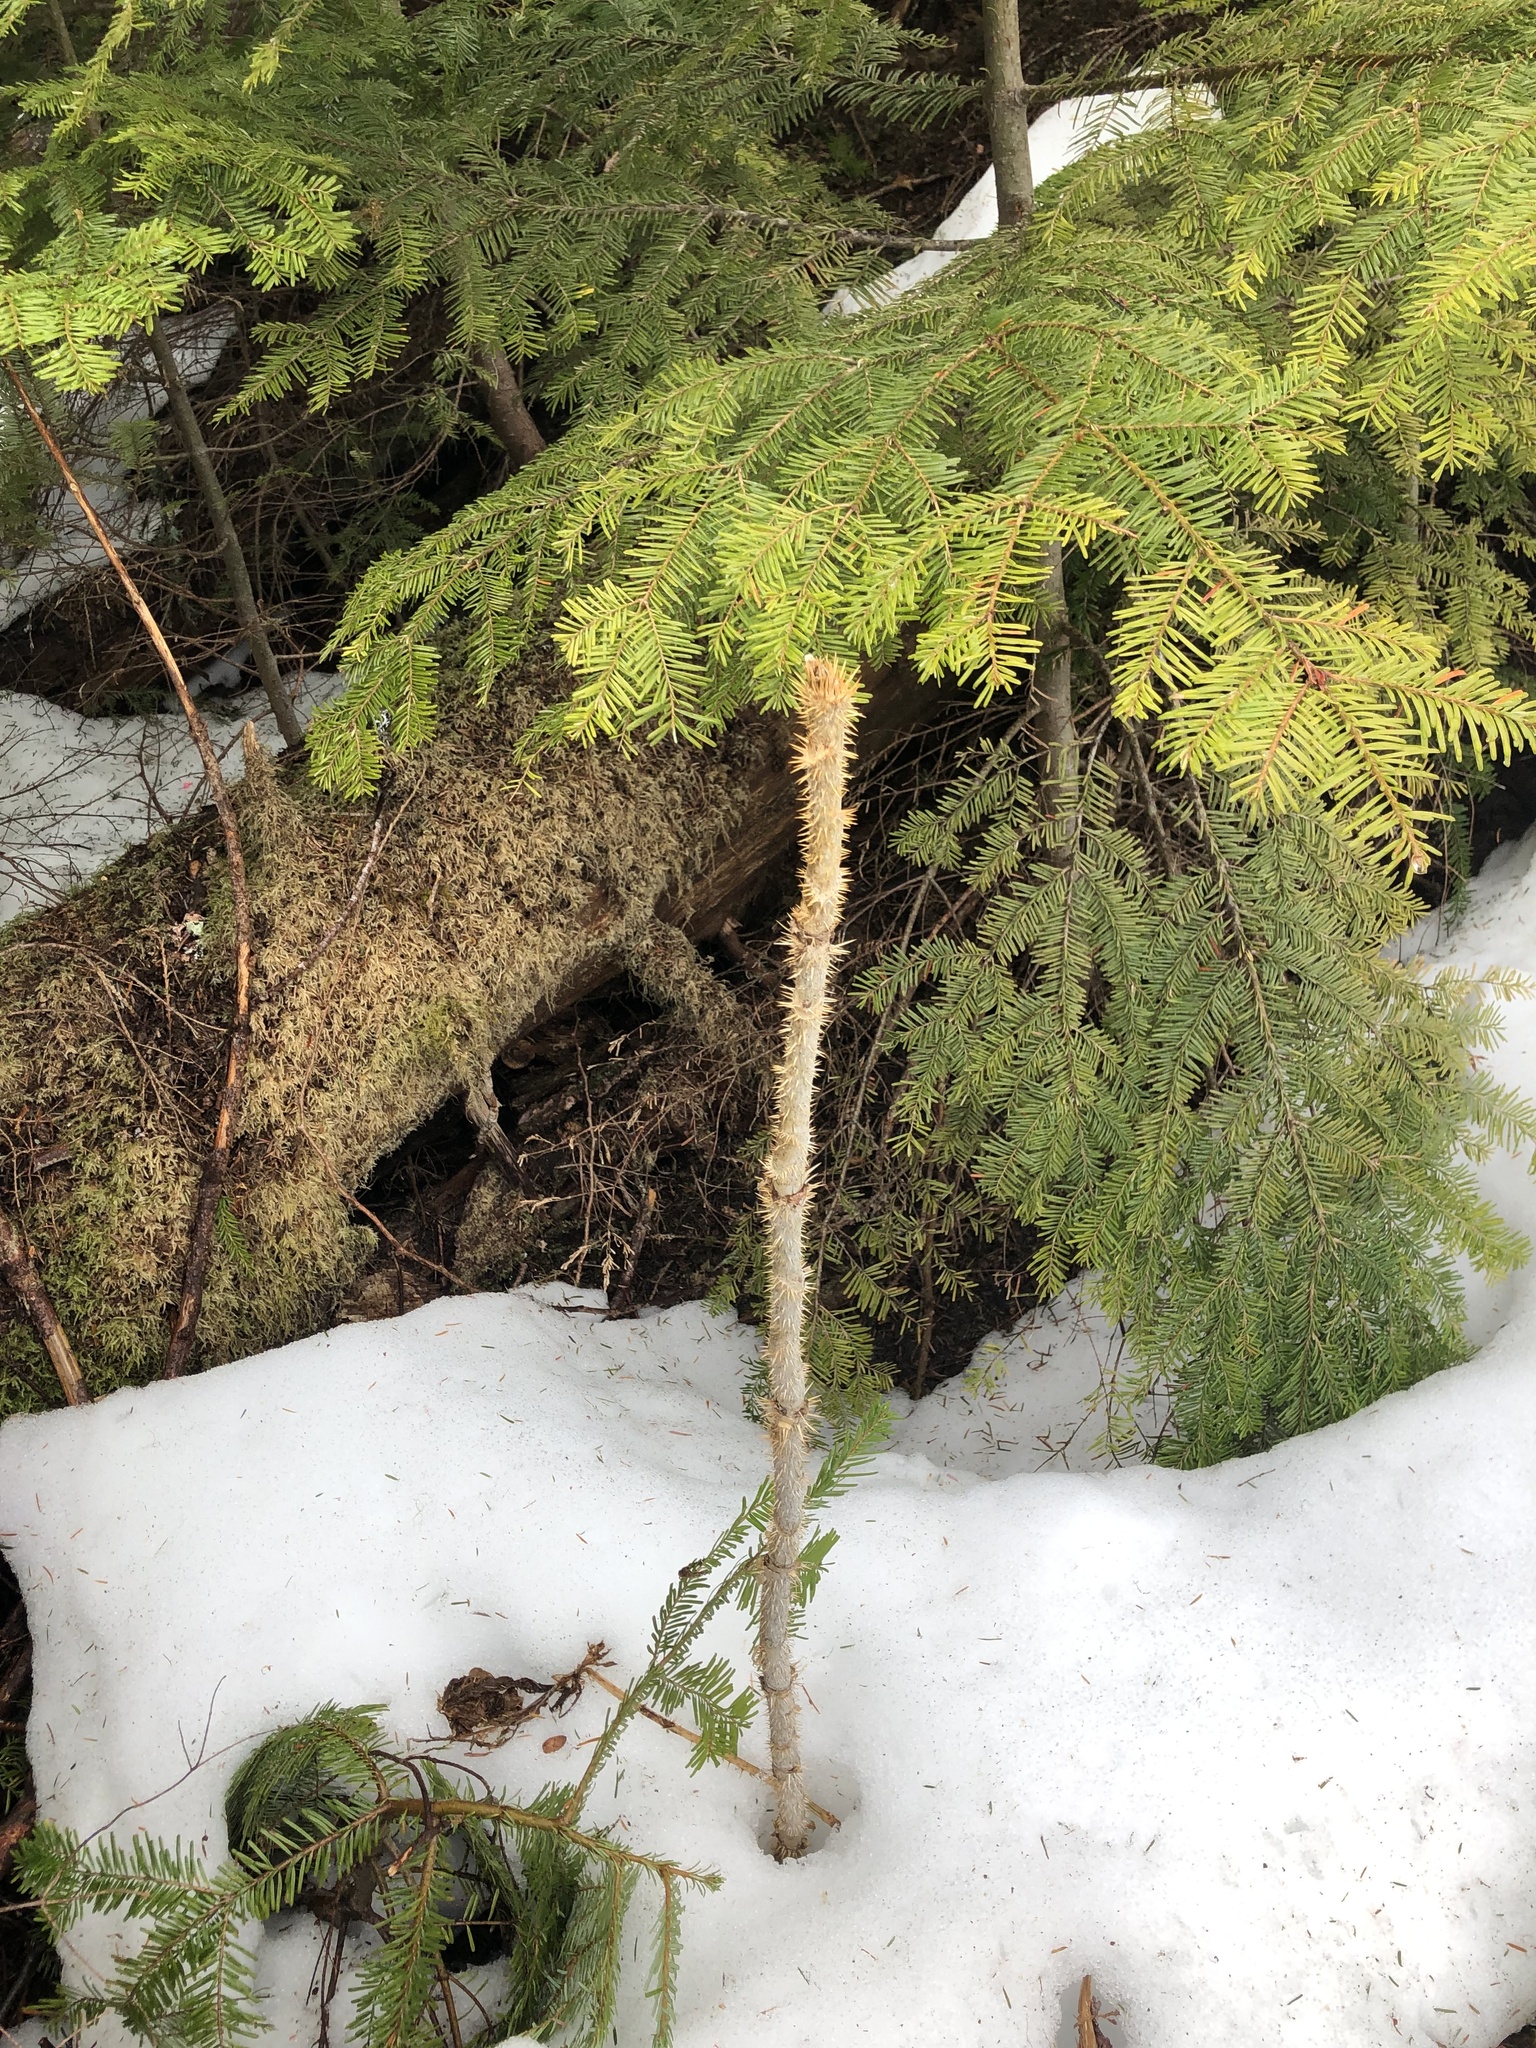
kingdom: Plantae
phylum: Tracheophyta
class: Magnoliopsida
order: Apiales
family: Araliaceae
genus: Oplopanax
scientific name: Oplopanax horridus
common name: Devil's walking-stick
